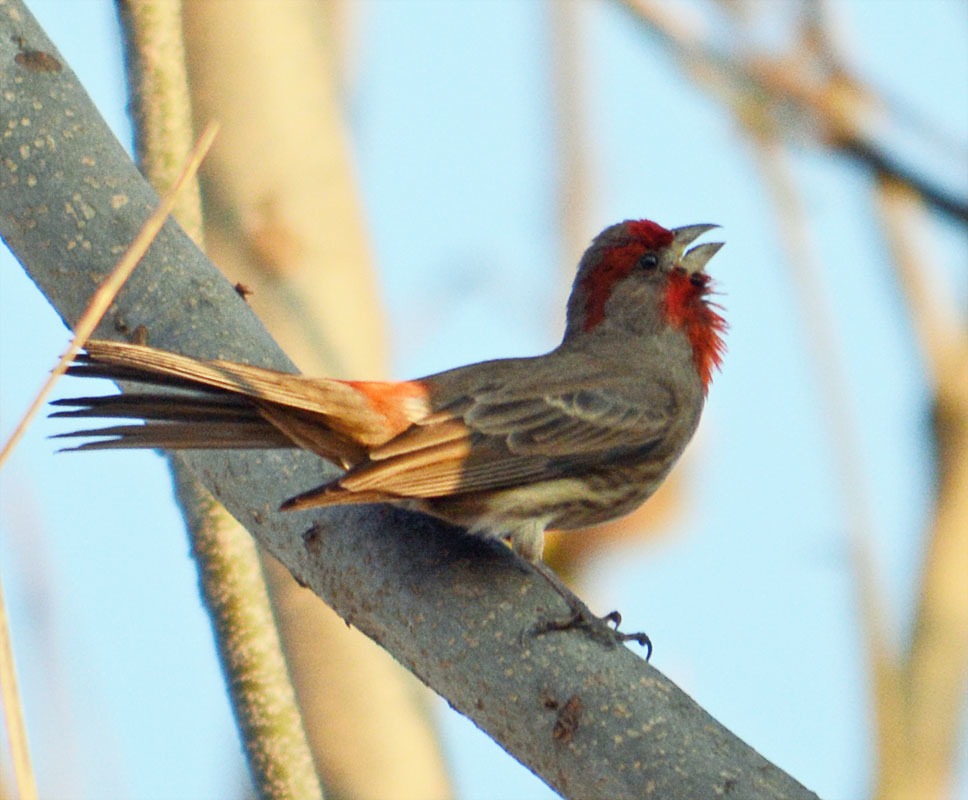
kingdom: Animalia
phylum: Chordata
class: Aves
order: Passeriformes
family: Fringillidae
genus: Haemorhous
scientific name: Haemorhous mexicanus
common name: House finch
